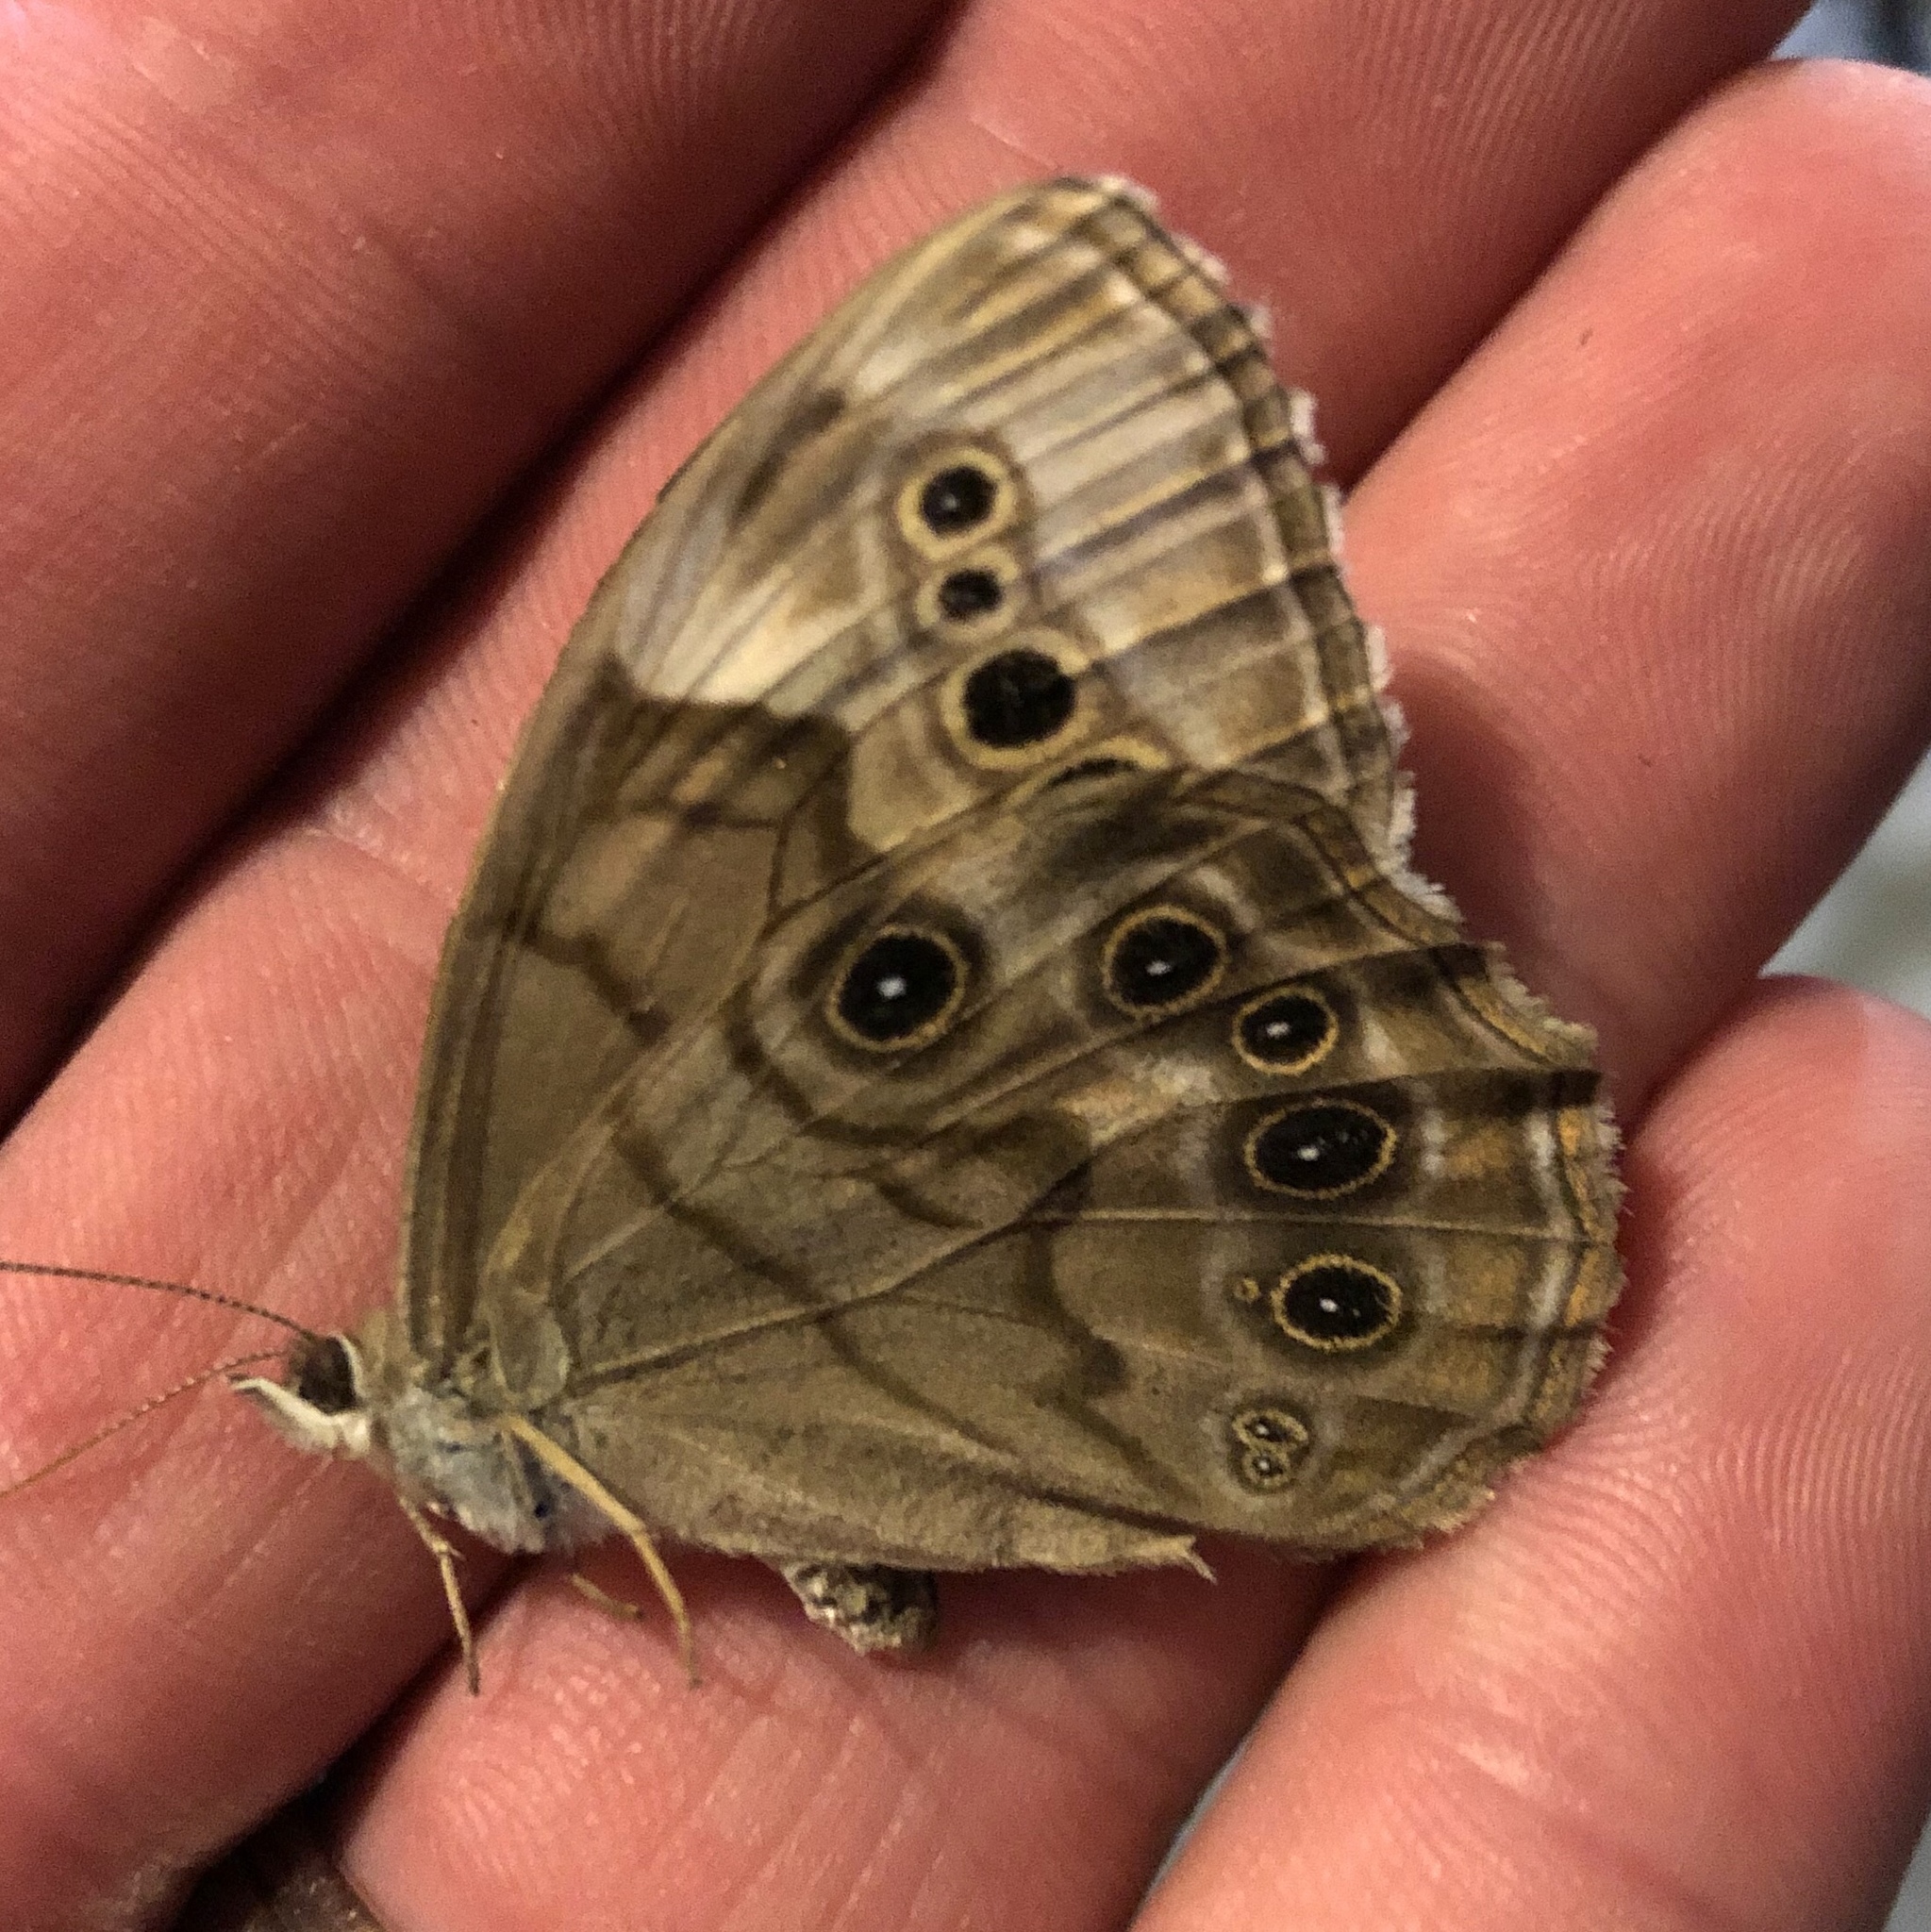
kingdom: Animalia
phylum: Arthropoda
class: Insecta
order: Lepidoptera
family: Nymphalidae
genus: Lethe
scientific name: Lethe anthedon
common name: Northern pearly-eye
